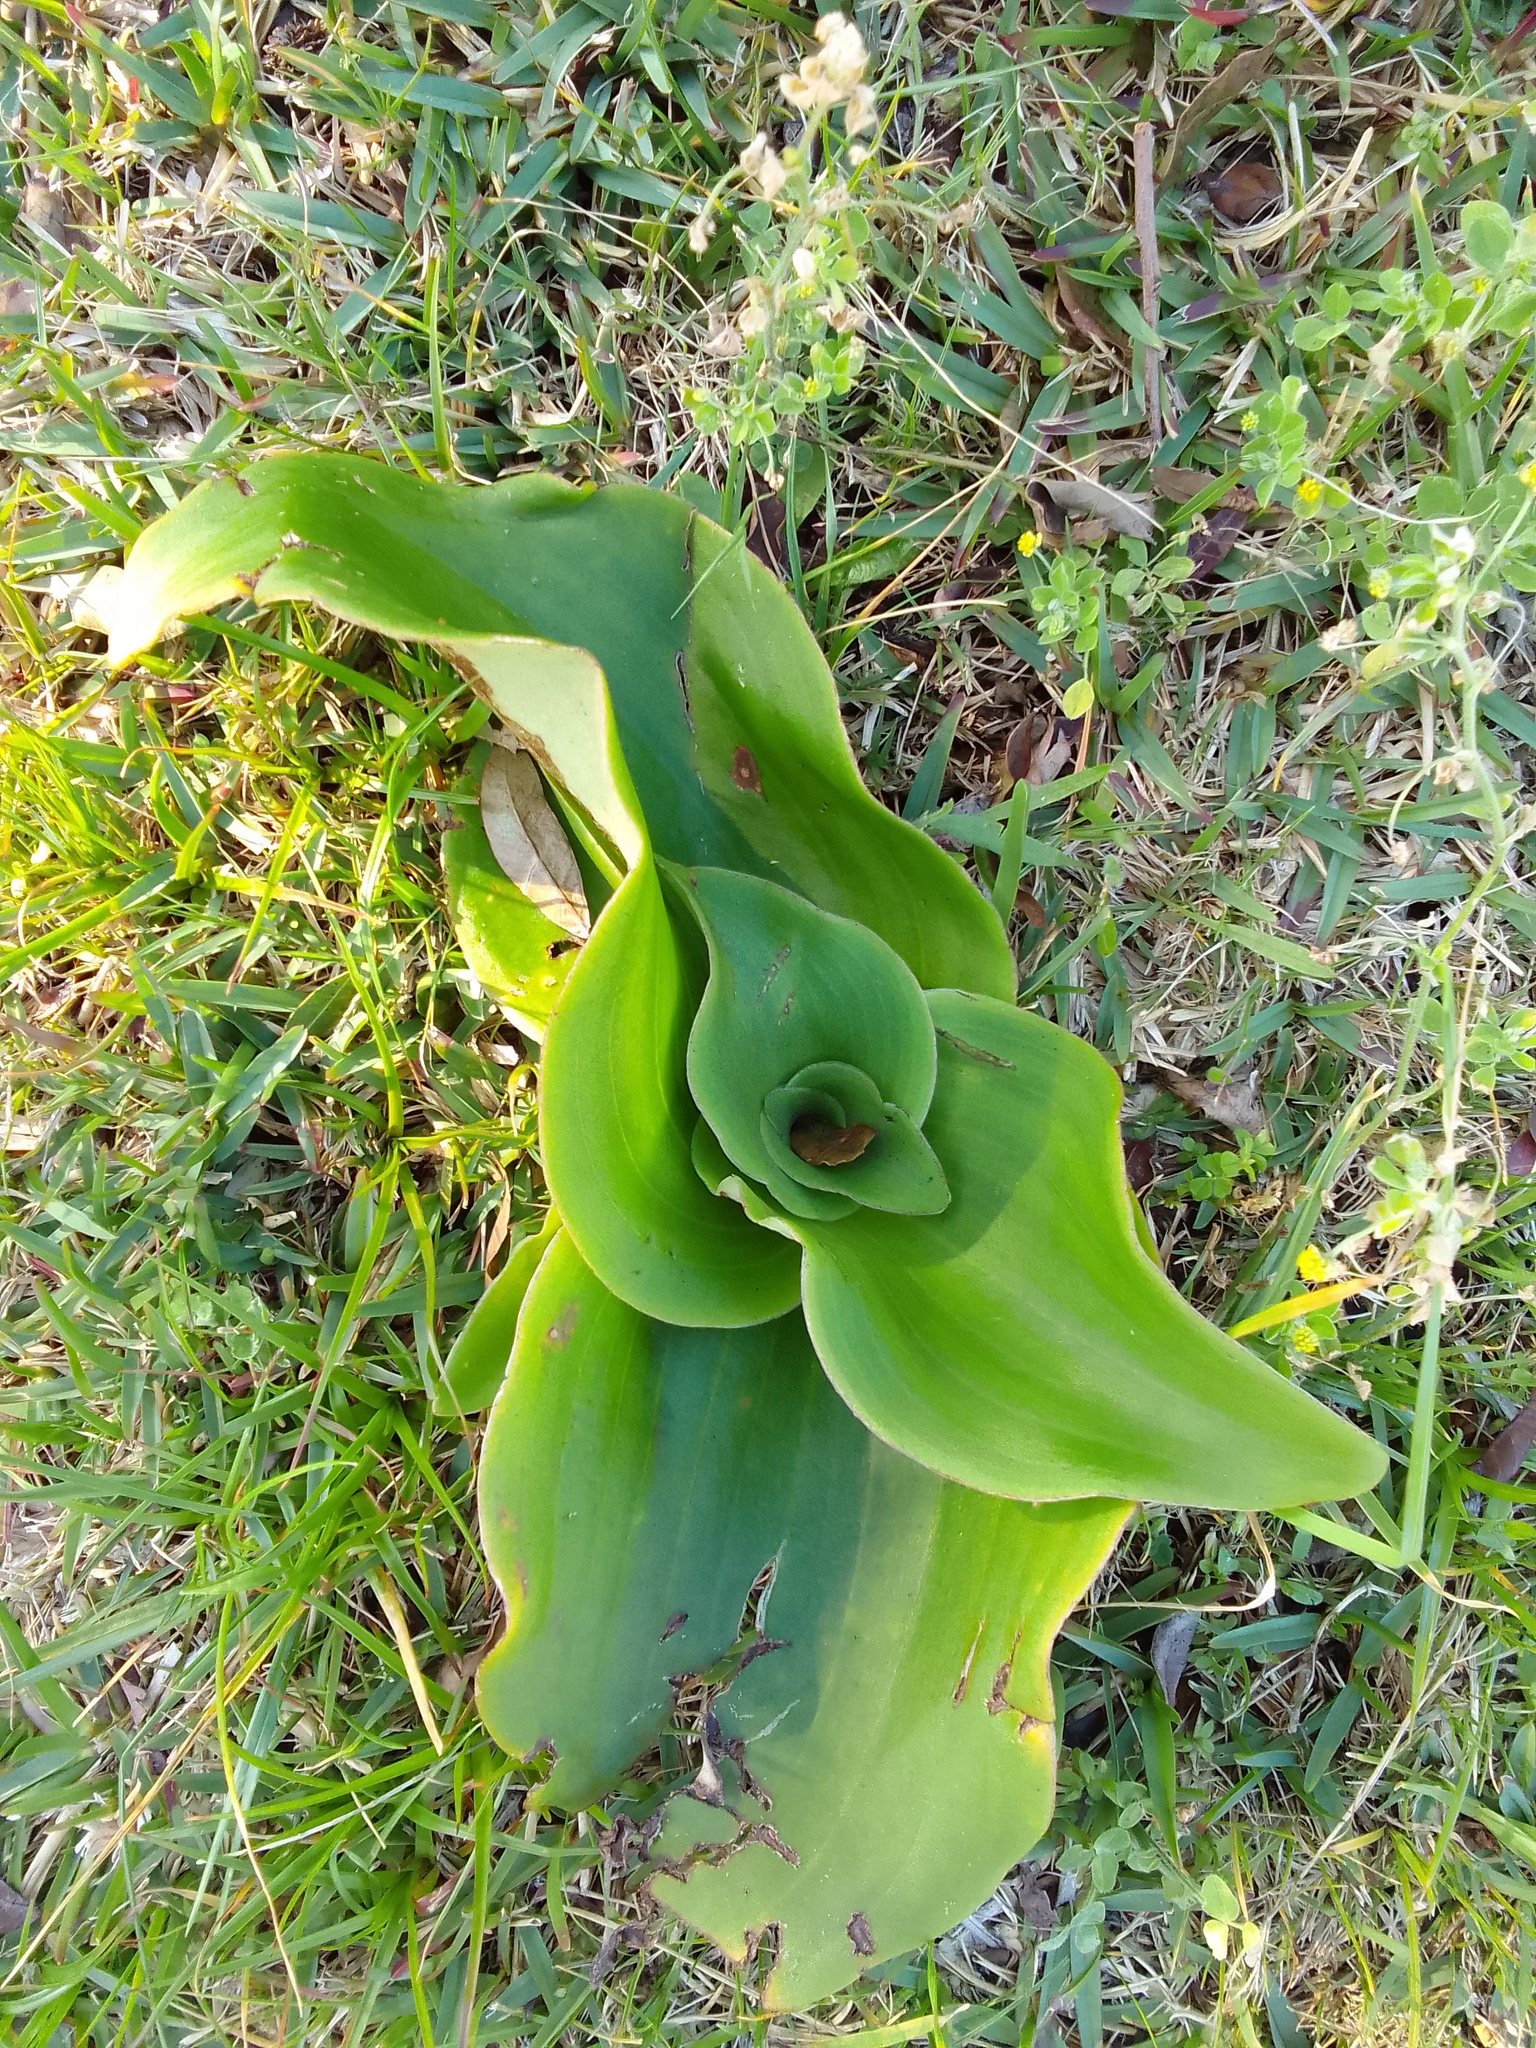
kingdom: Plantae
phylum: Tracheophyta
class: Liliopsida
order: Asparagales
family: Orchidaceae
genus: Satyrium
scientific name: Satyrium odorum
